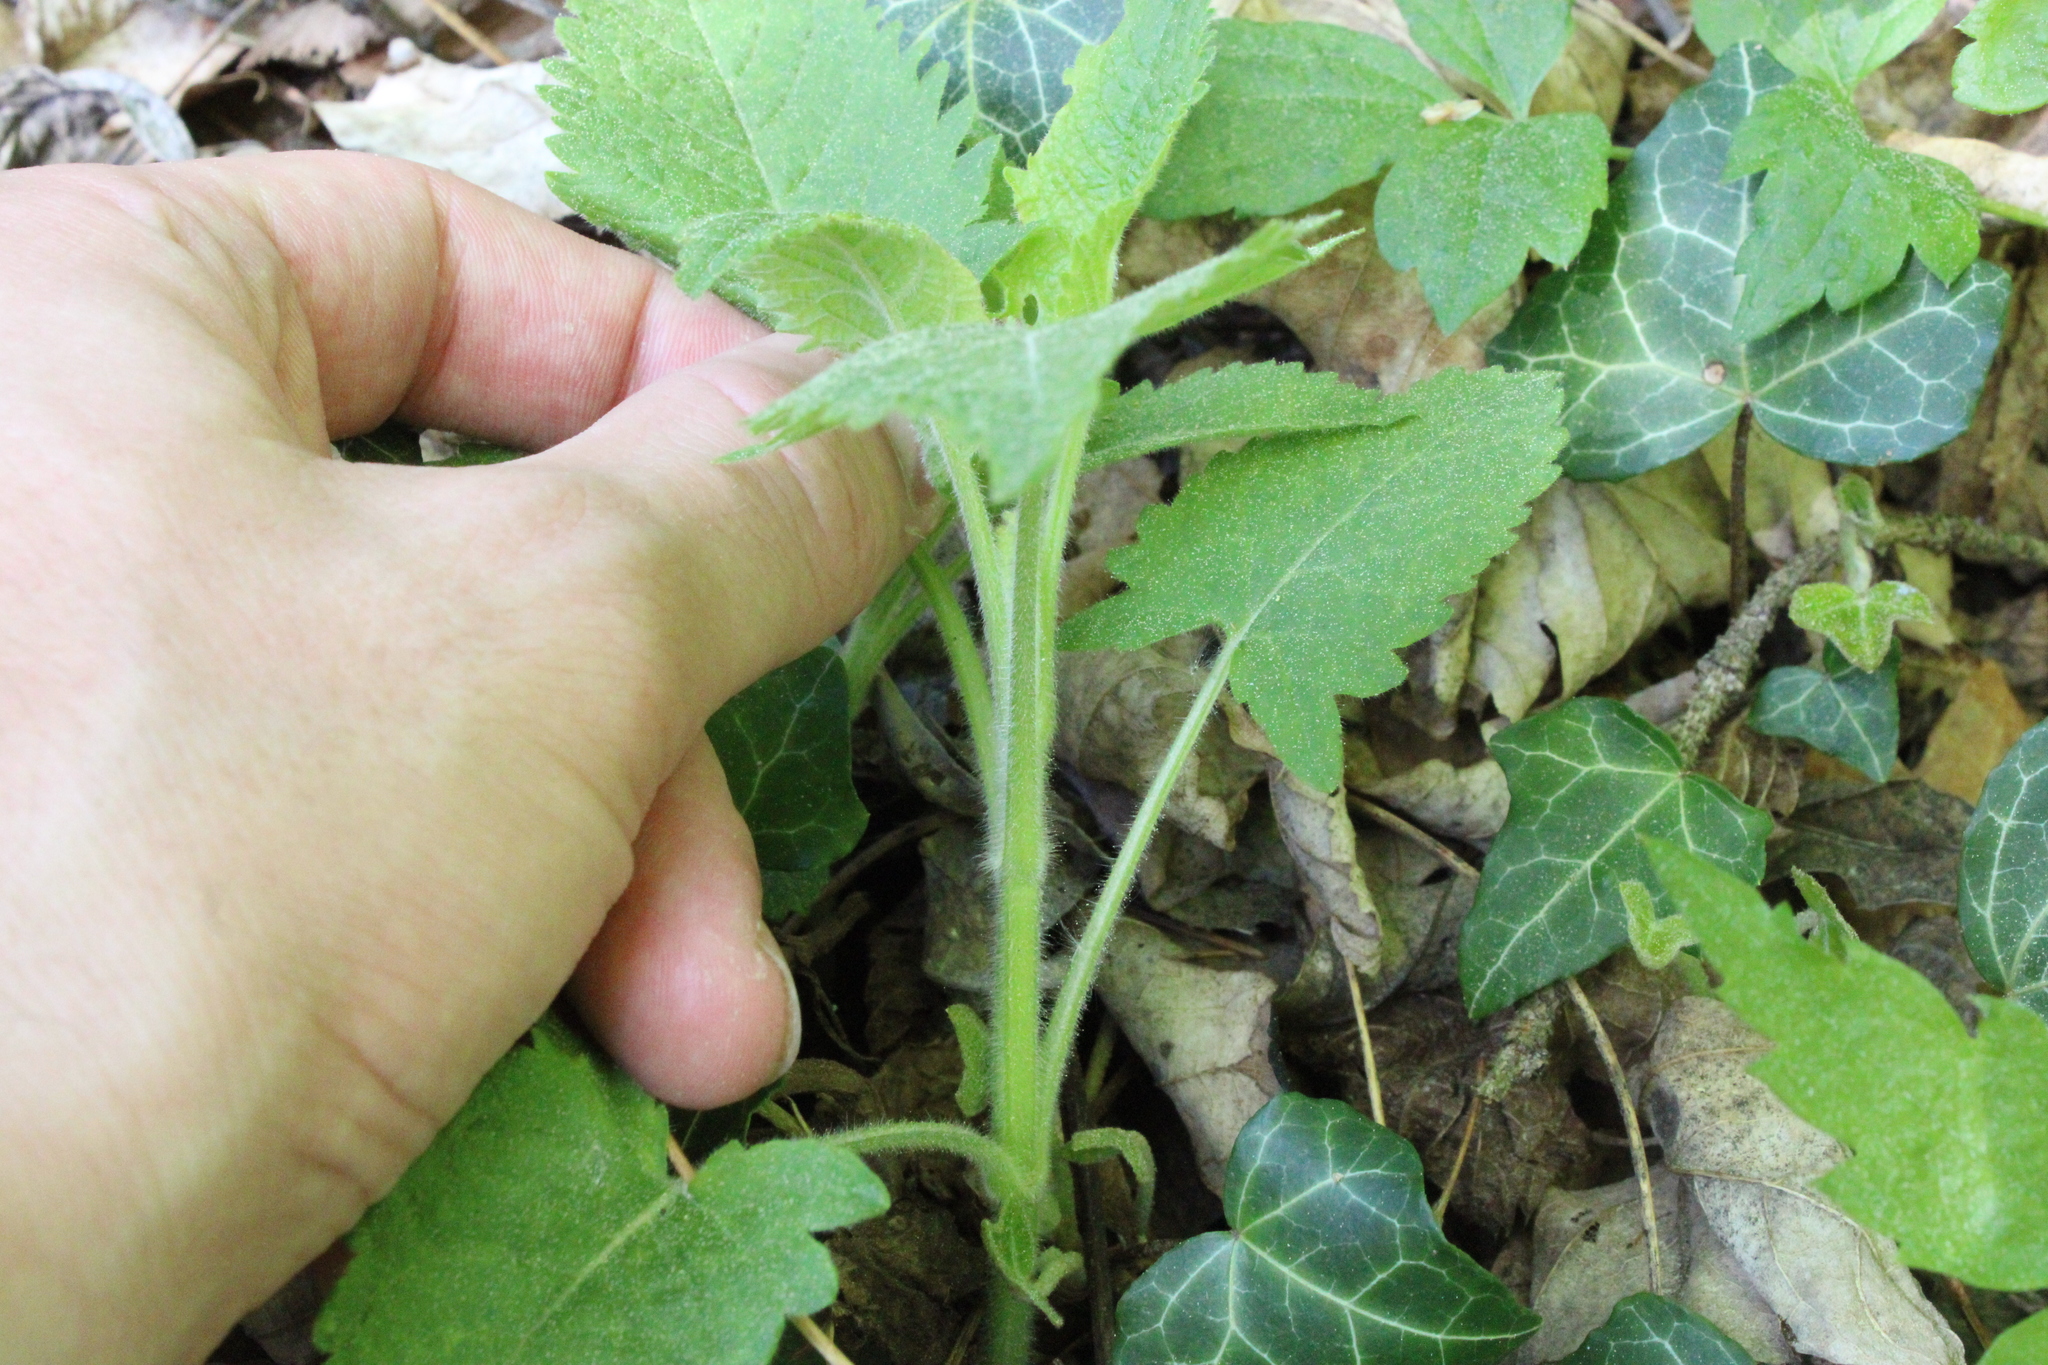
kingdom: Plantae
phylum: Tracheophyta
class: Magnoliopsida
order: Lamiales
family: Lamiaceae
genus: Salvia
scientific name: Salvia glutinosa
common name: Sticky clary
